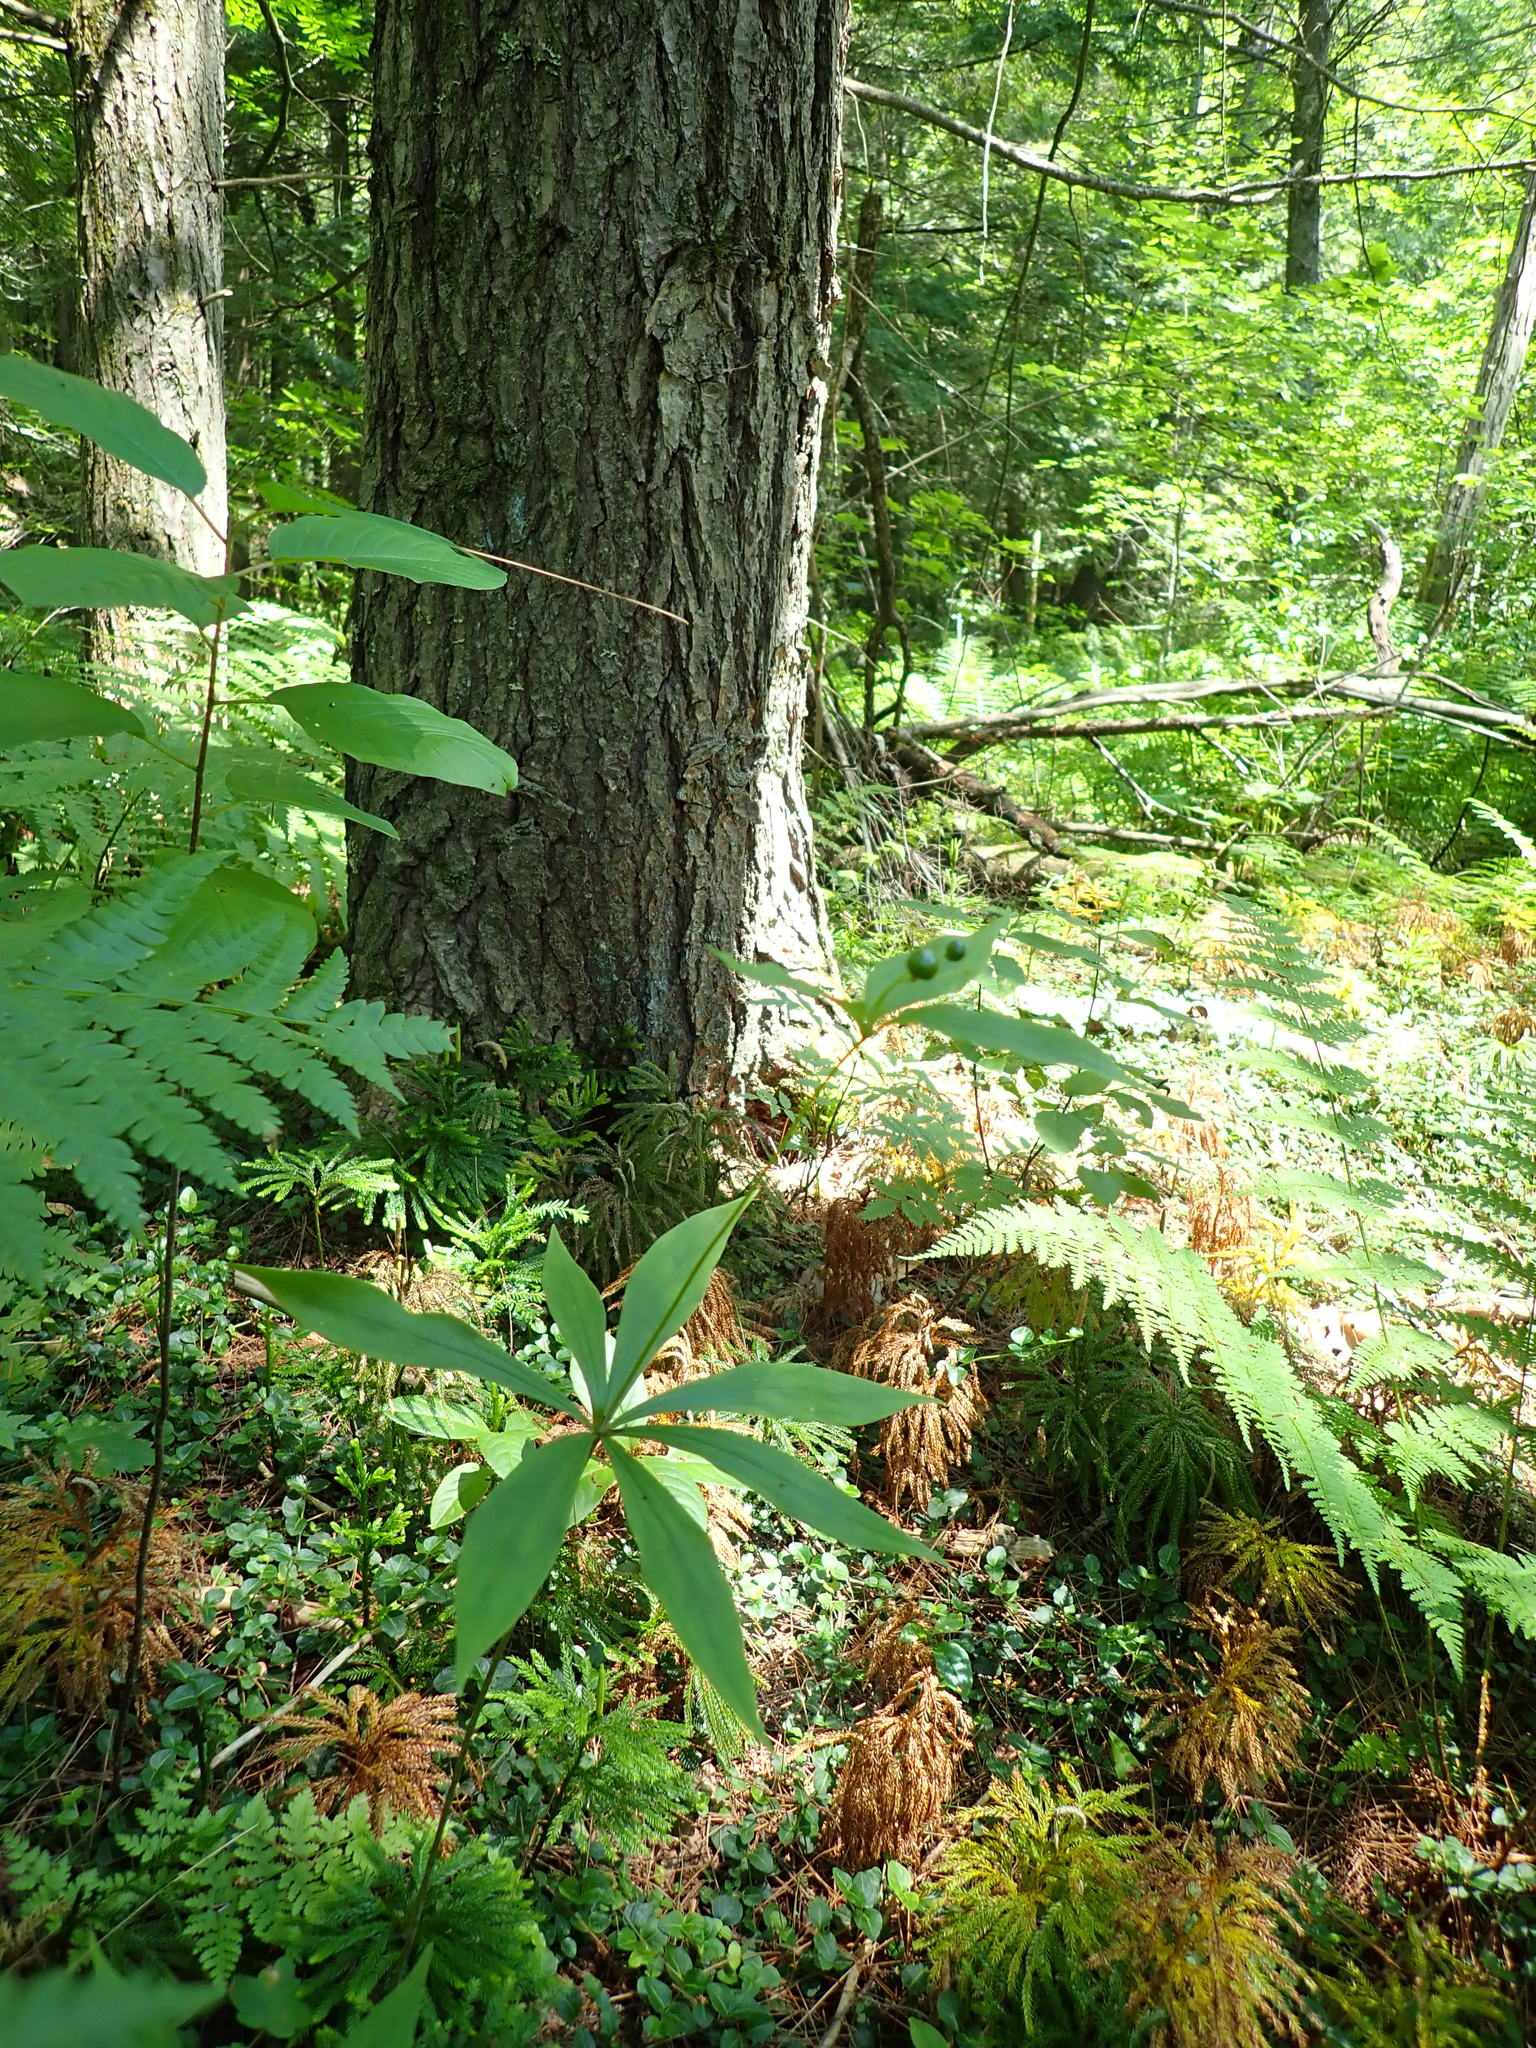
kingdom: Plantae
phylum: Tracheophyta
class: Liliopsida
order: Liliales
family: Liliaceae
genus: Medeola
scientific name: Medeola virginiana
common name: Indian cucumber-root
